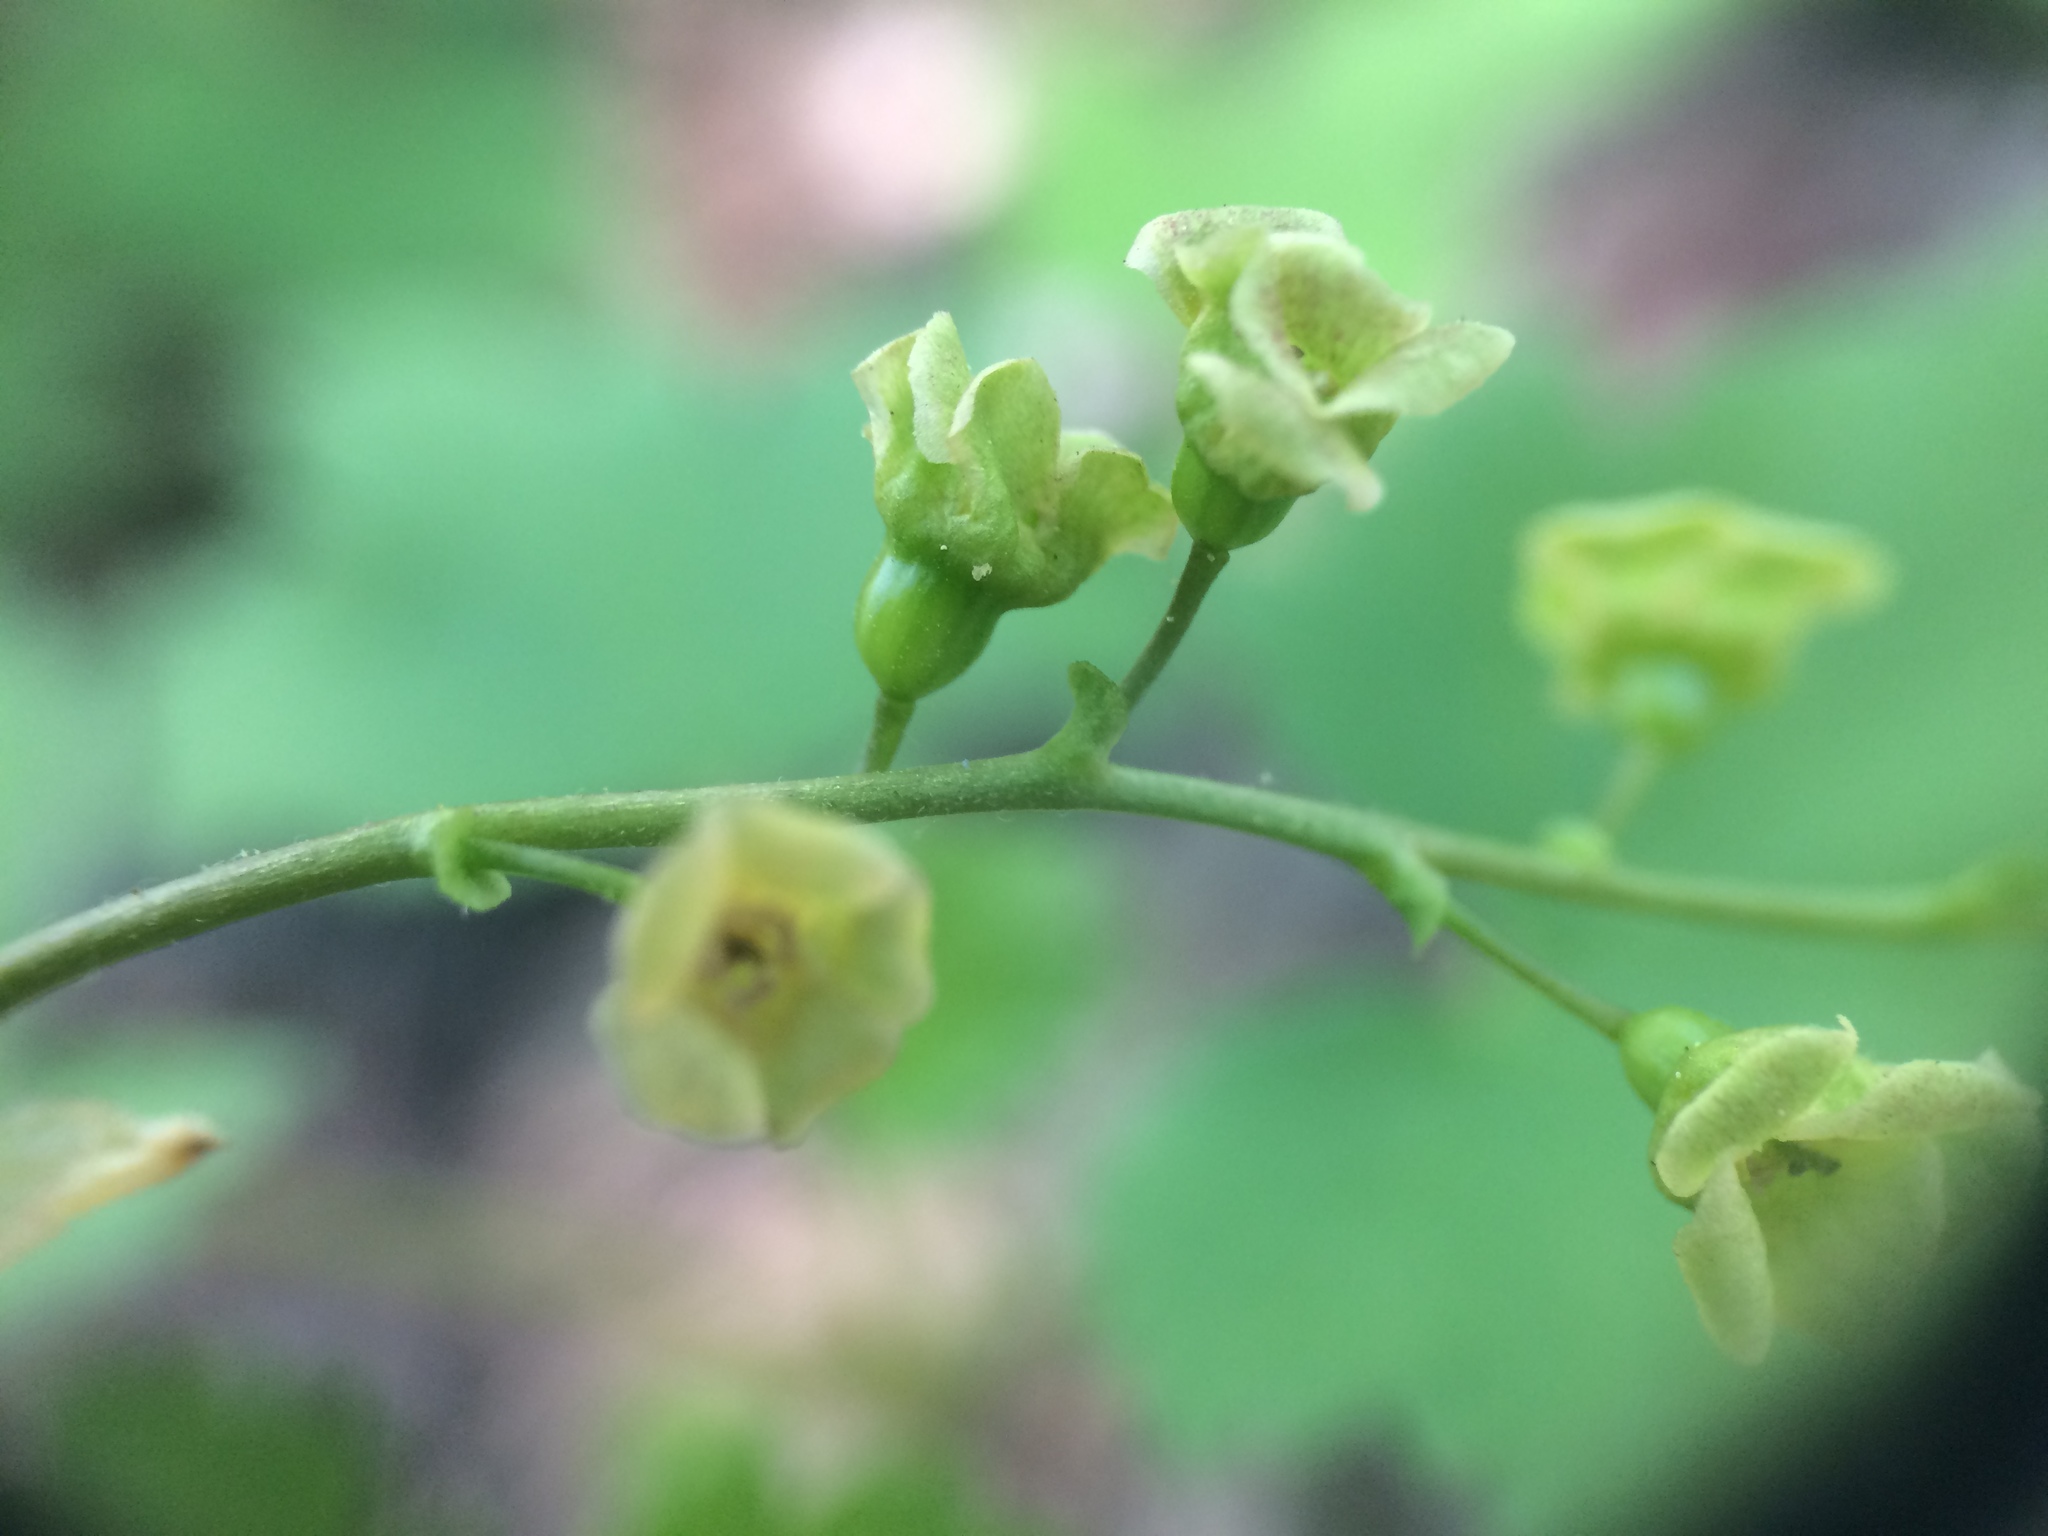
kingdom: Plantae
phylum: Tracheophyta
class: Magnoliopsida
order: Saxifragales
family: Grossulariaceae
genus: Ribes
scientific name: Ribes rubrum
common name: Red currant
